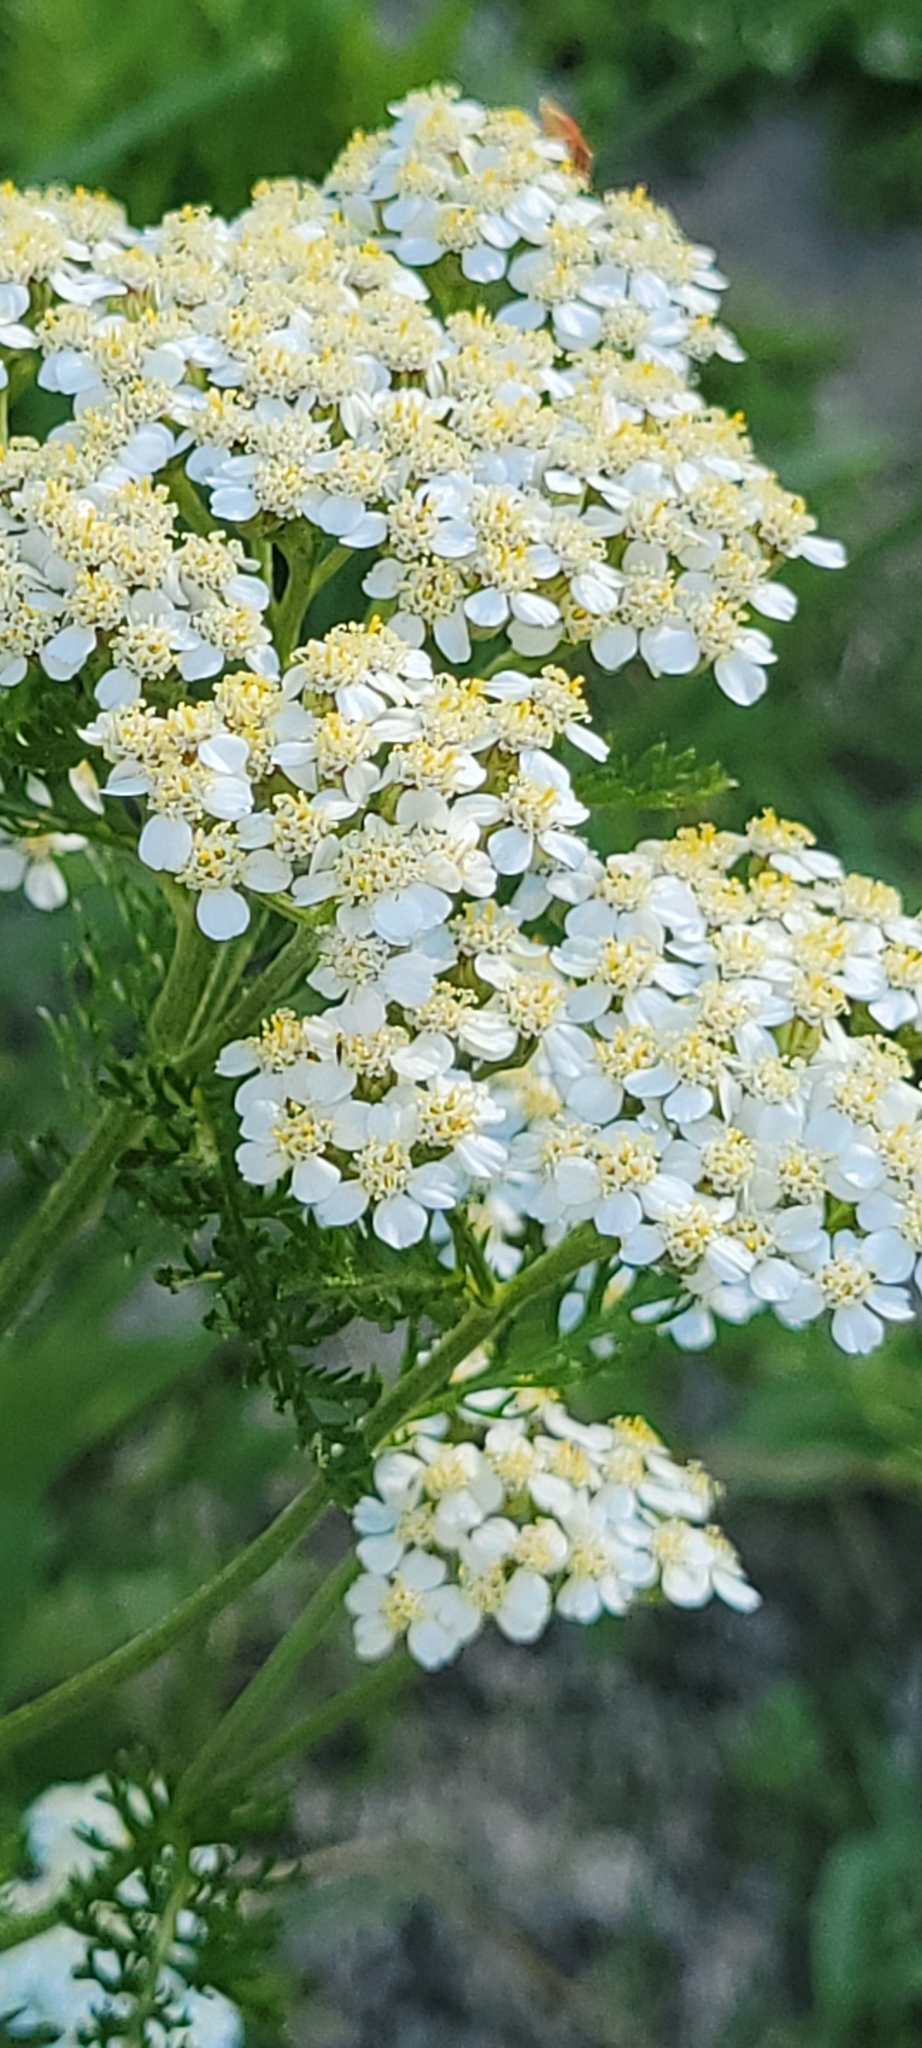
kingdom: Plantae
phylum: Tracheophyta
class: Magnoliopsida
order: Asterales
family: Asteraceae
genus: Achillea
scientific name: Achillea millefolium
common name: Yarrow
